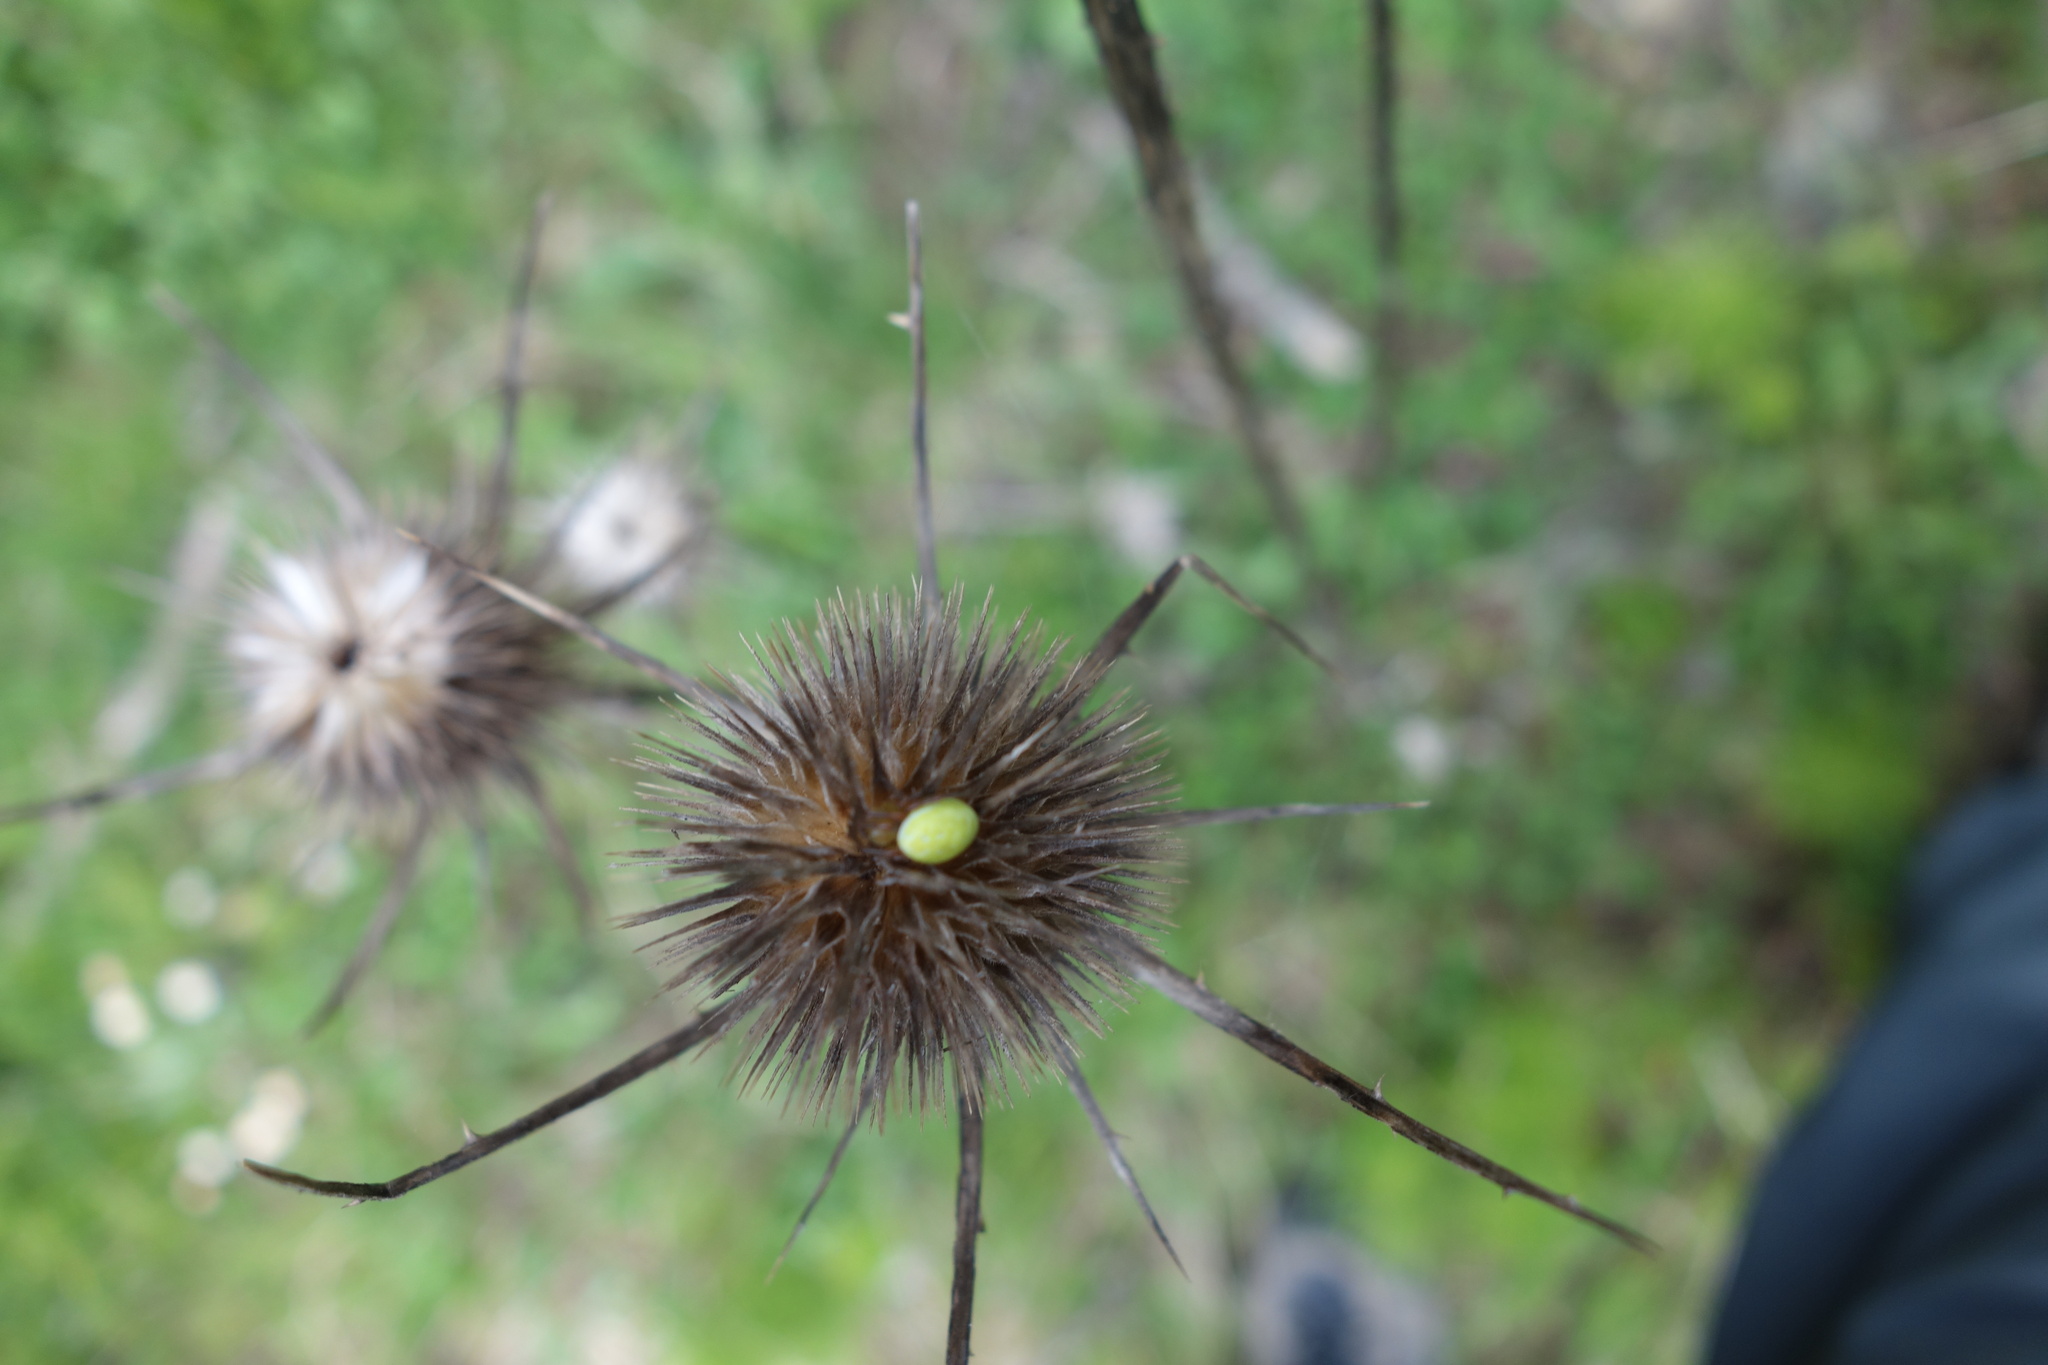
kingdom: Animalia
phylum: Arthropoda
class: Arachnida
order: Araneae
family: Araneidae
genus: Araniella
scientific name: Araniella
